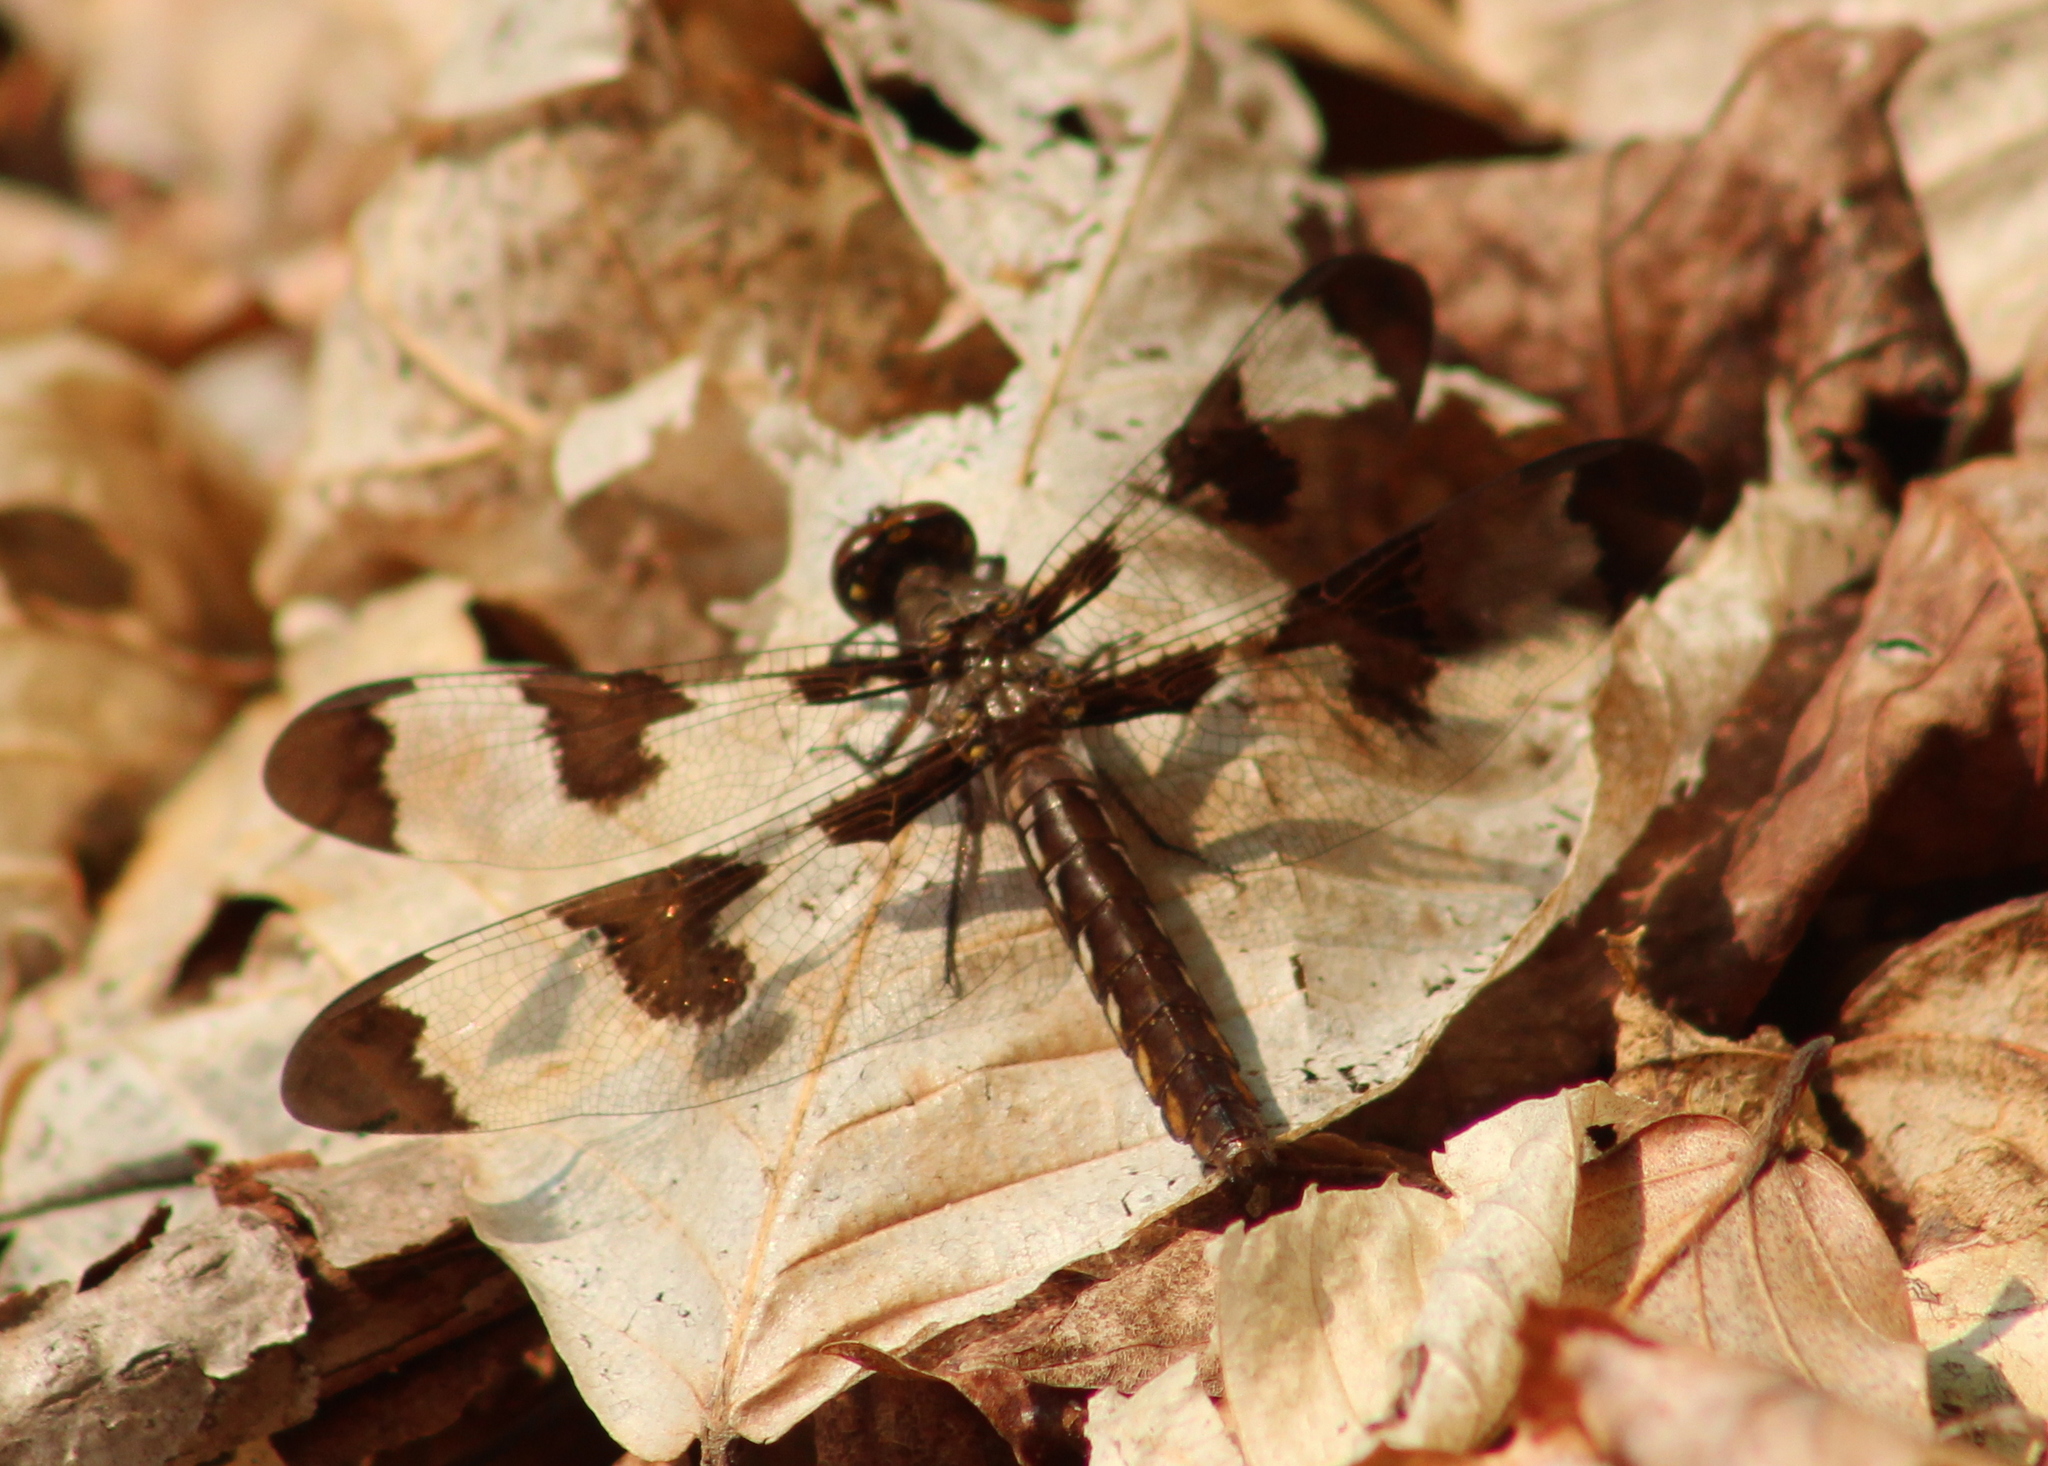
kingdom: Animalia
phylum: Arthropoda
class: Insecta
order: Odonata
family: Libellulidae
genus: Plathemis
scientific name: Plathemis lydia
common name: Common whitetail
